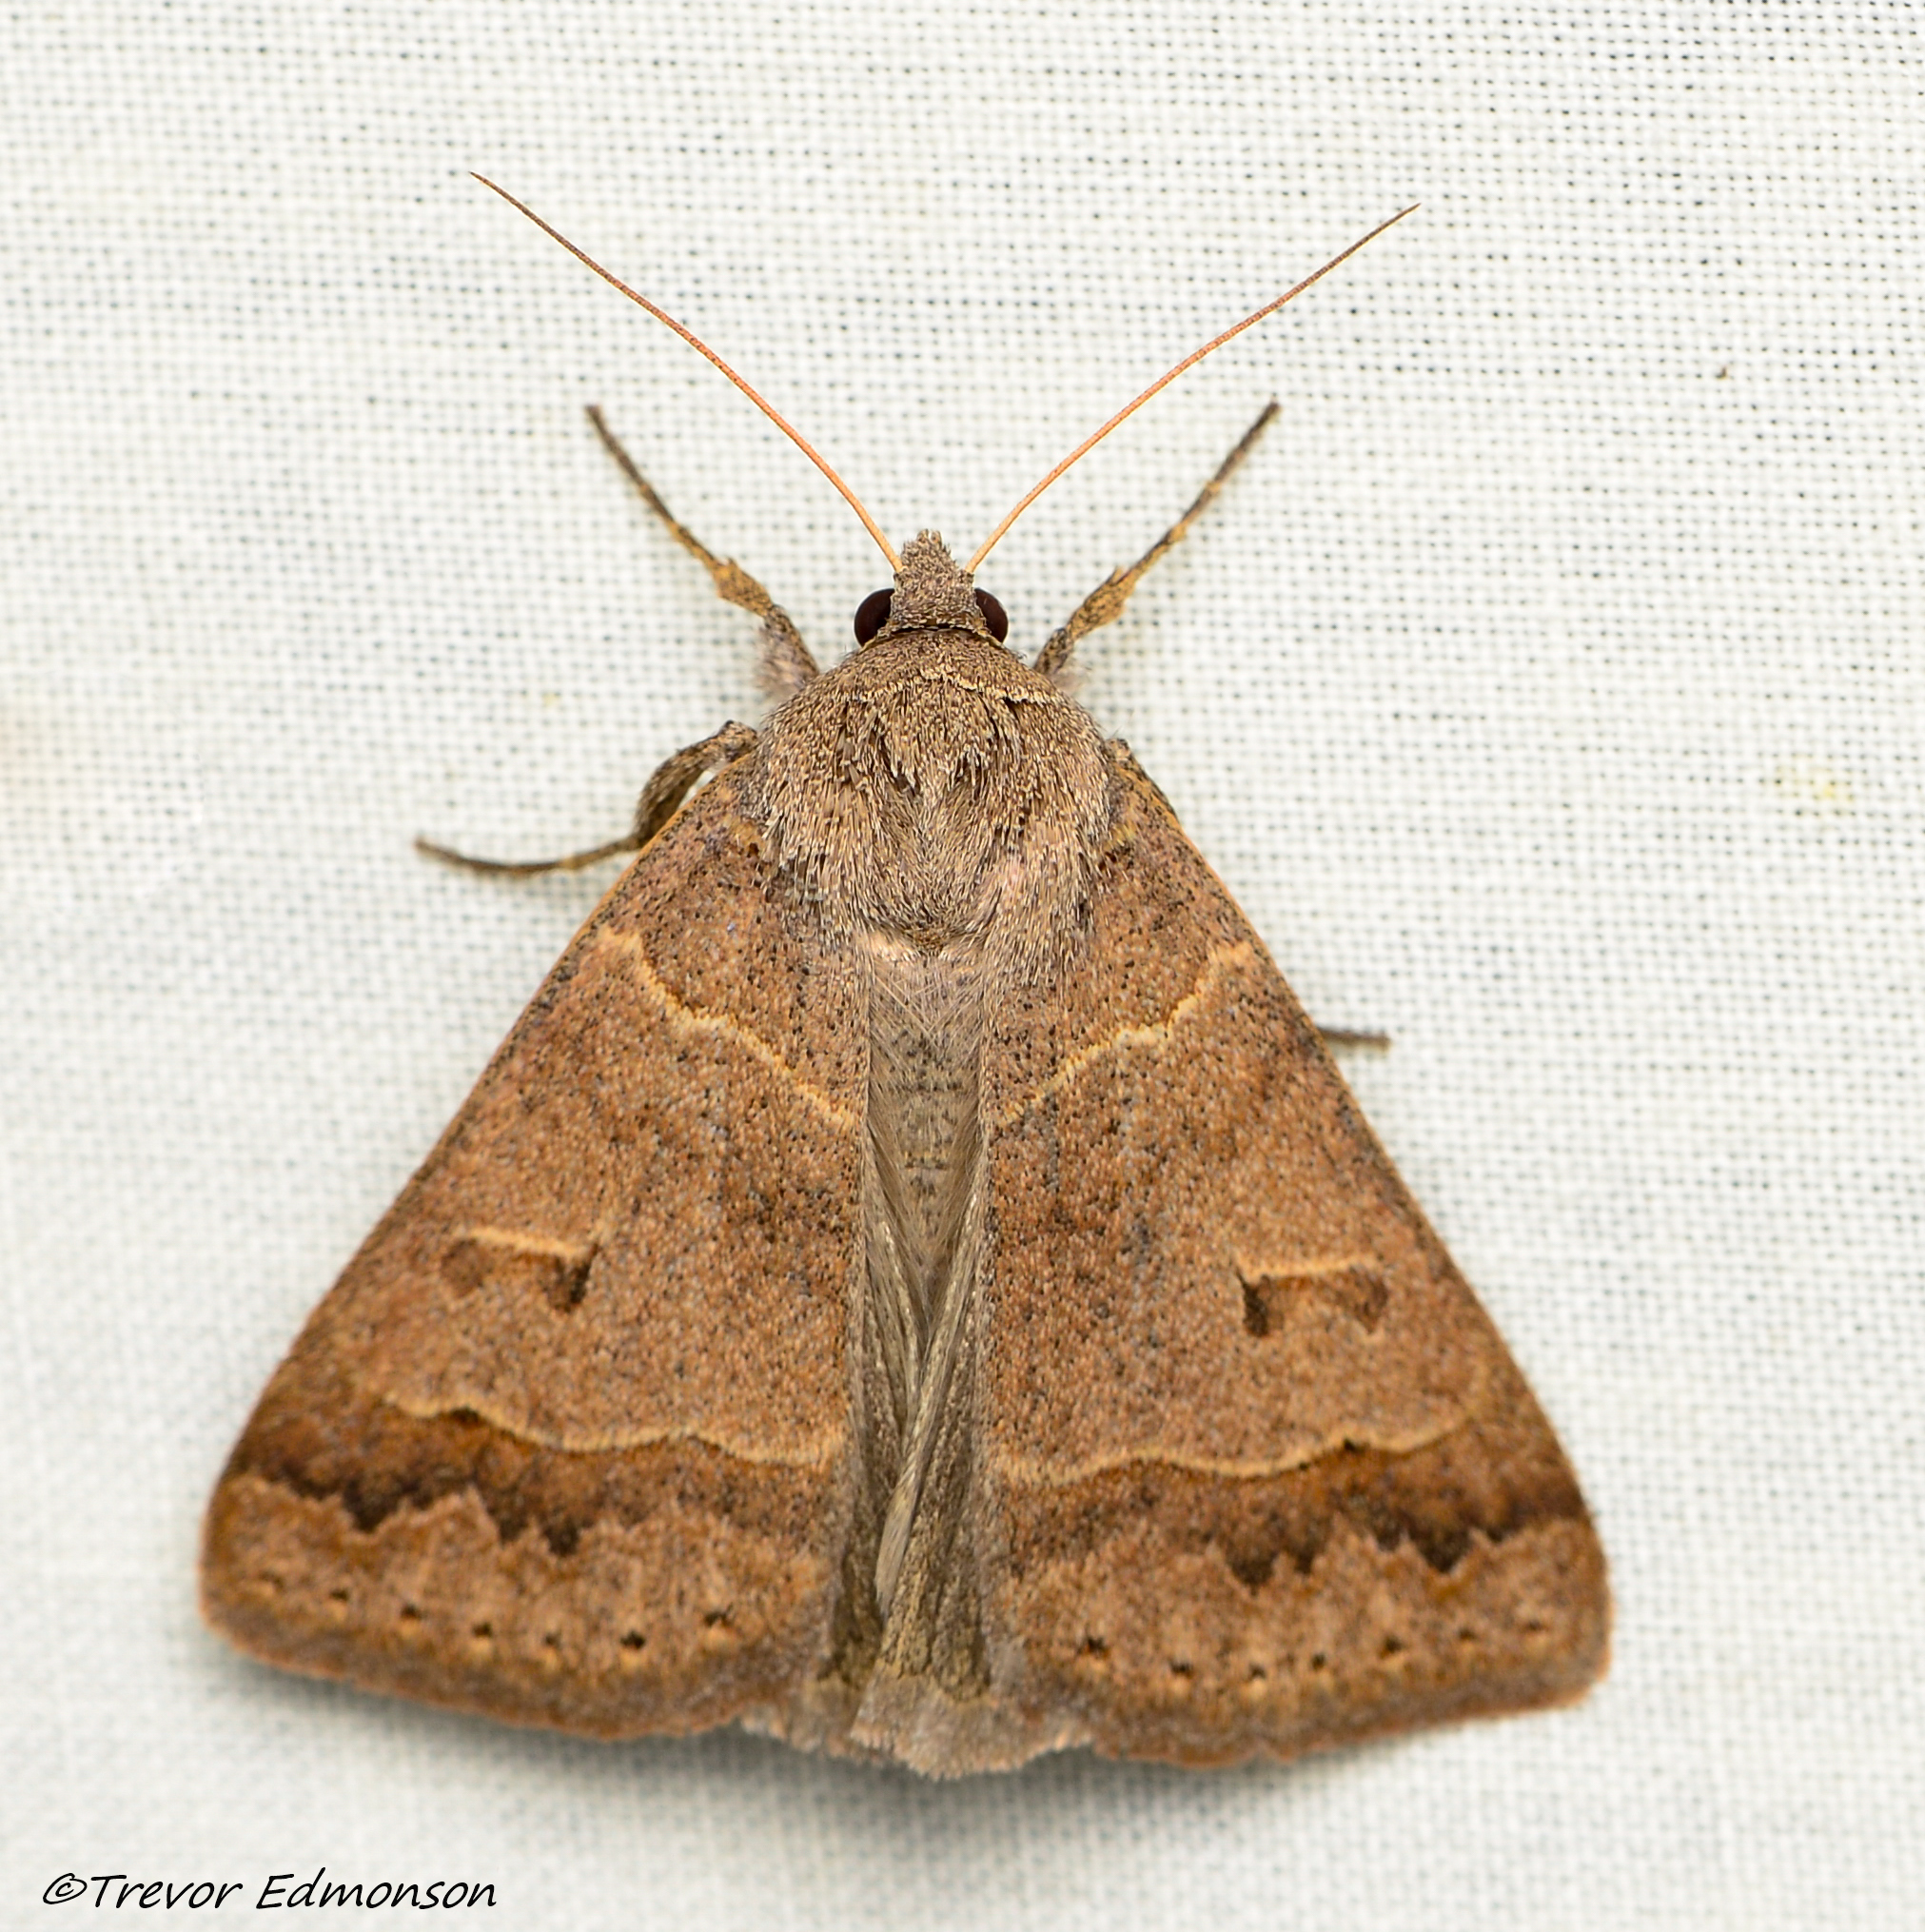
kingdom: Animalia
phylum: Arthropoda
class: Insecta
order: Lepidoptera
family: Erebidae
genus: Phoberia
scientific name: Phoberia atomaris
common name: Common oak moth
